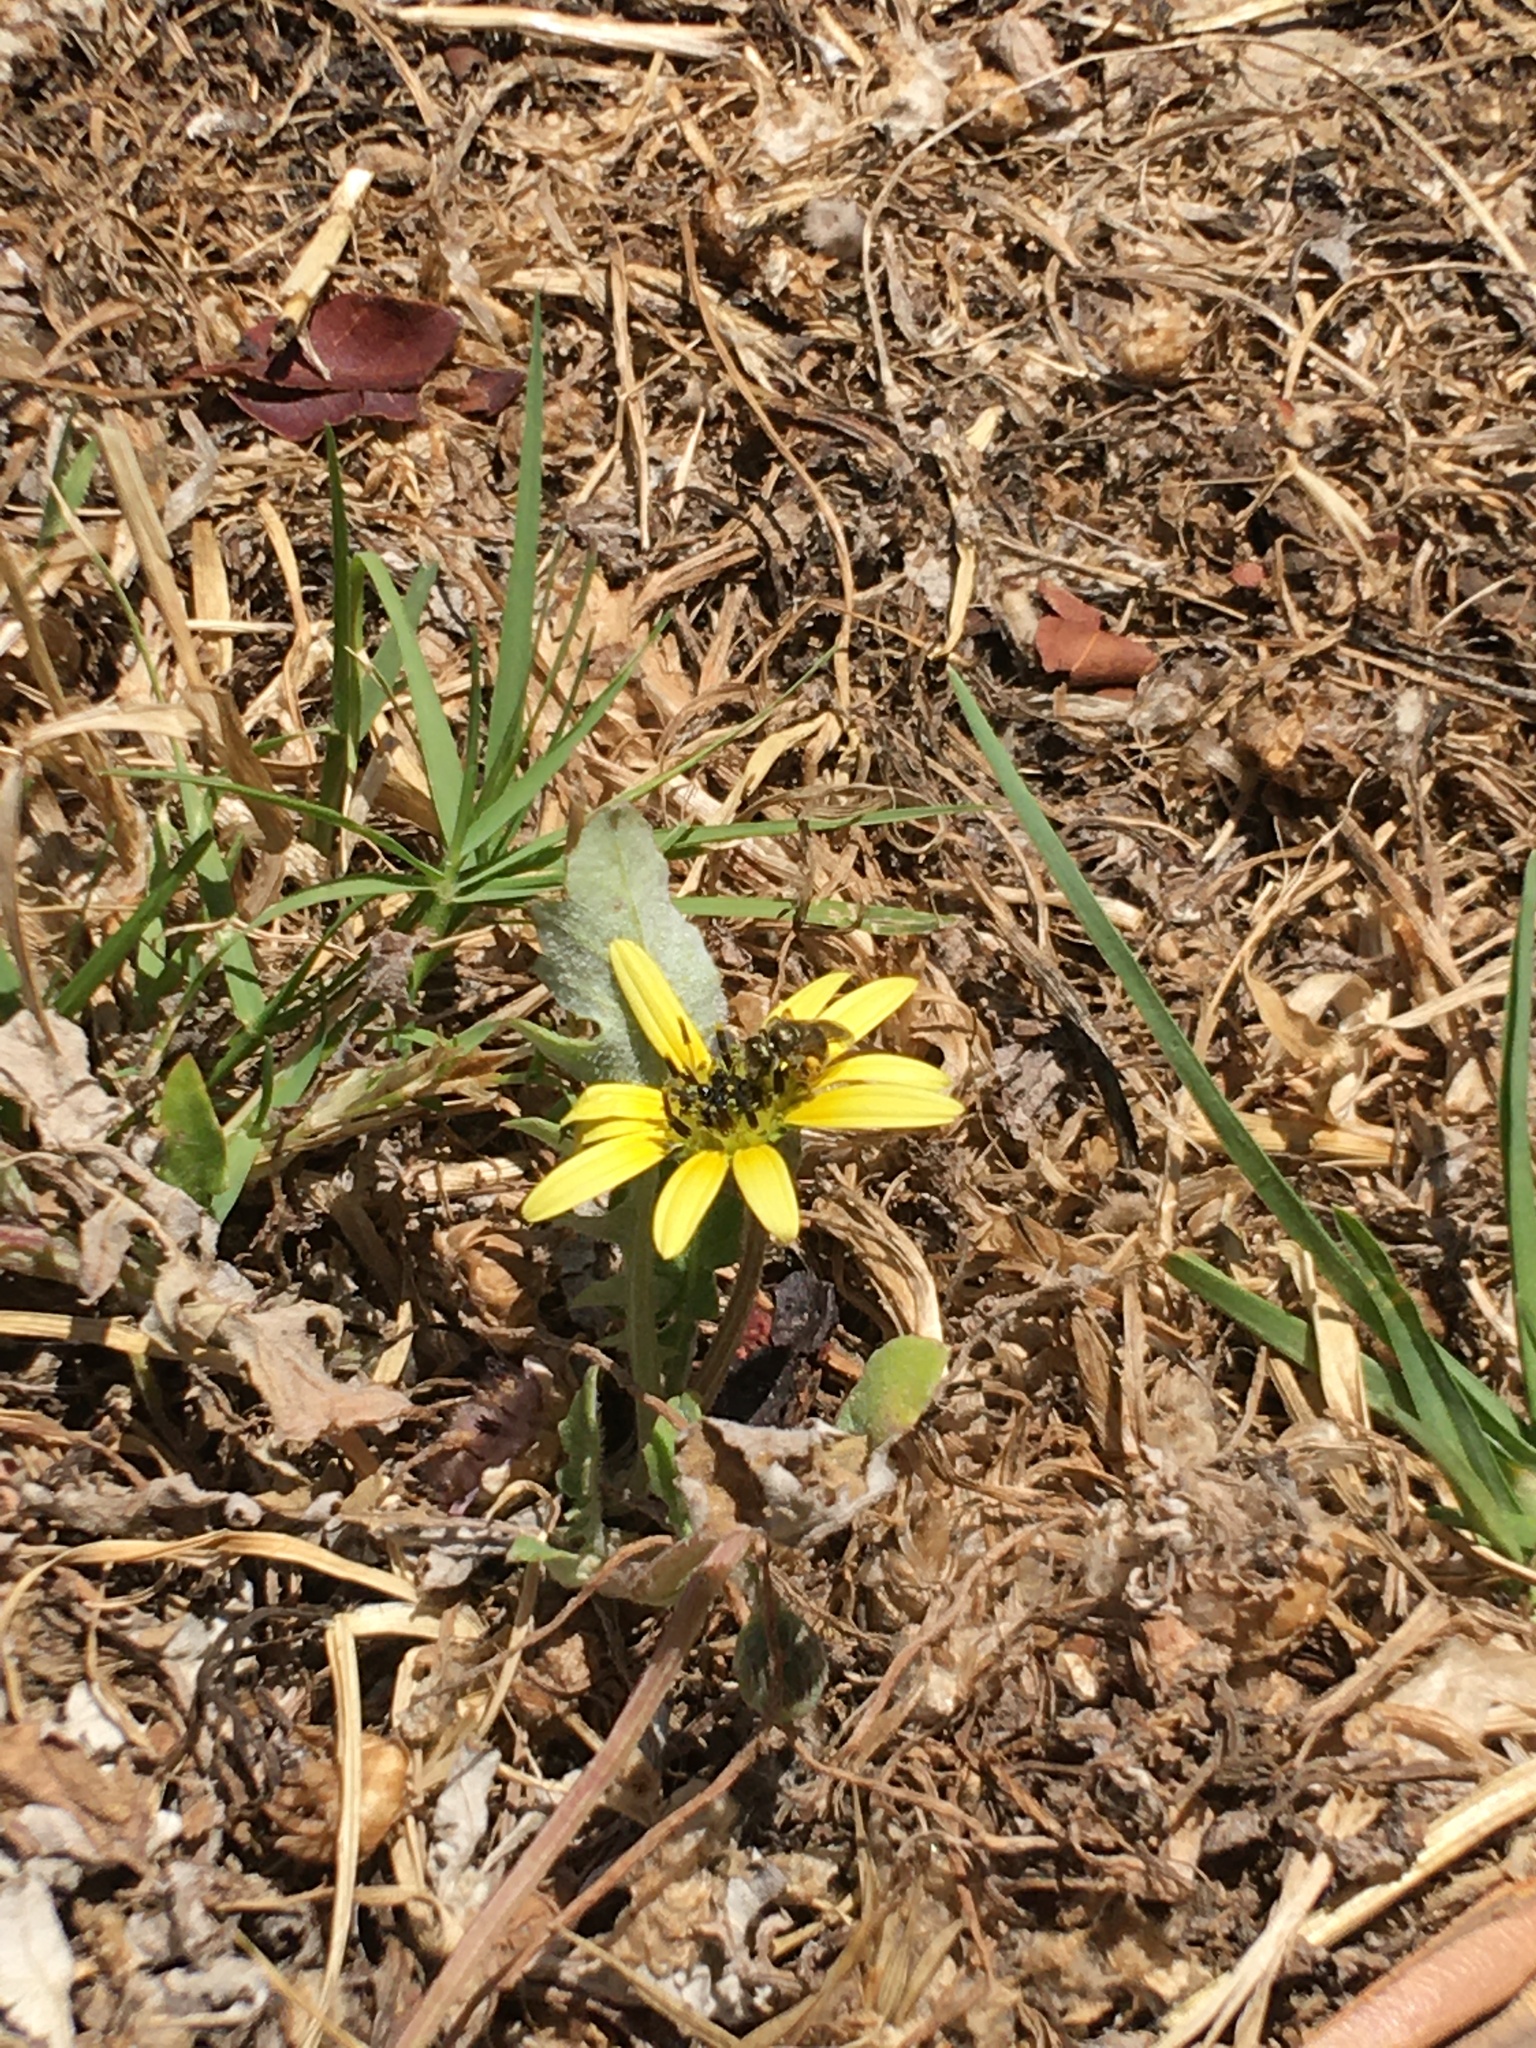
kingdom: Animalia
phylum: Arthropoda
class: Insecta
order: Hymenoptera
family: Halictidae
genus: Seladonia
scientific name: Seladonia
